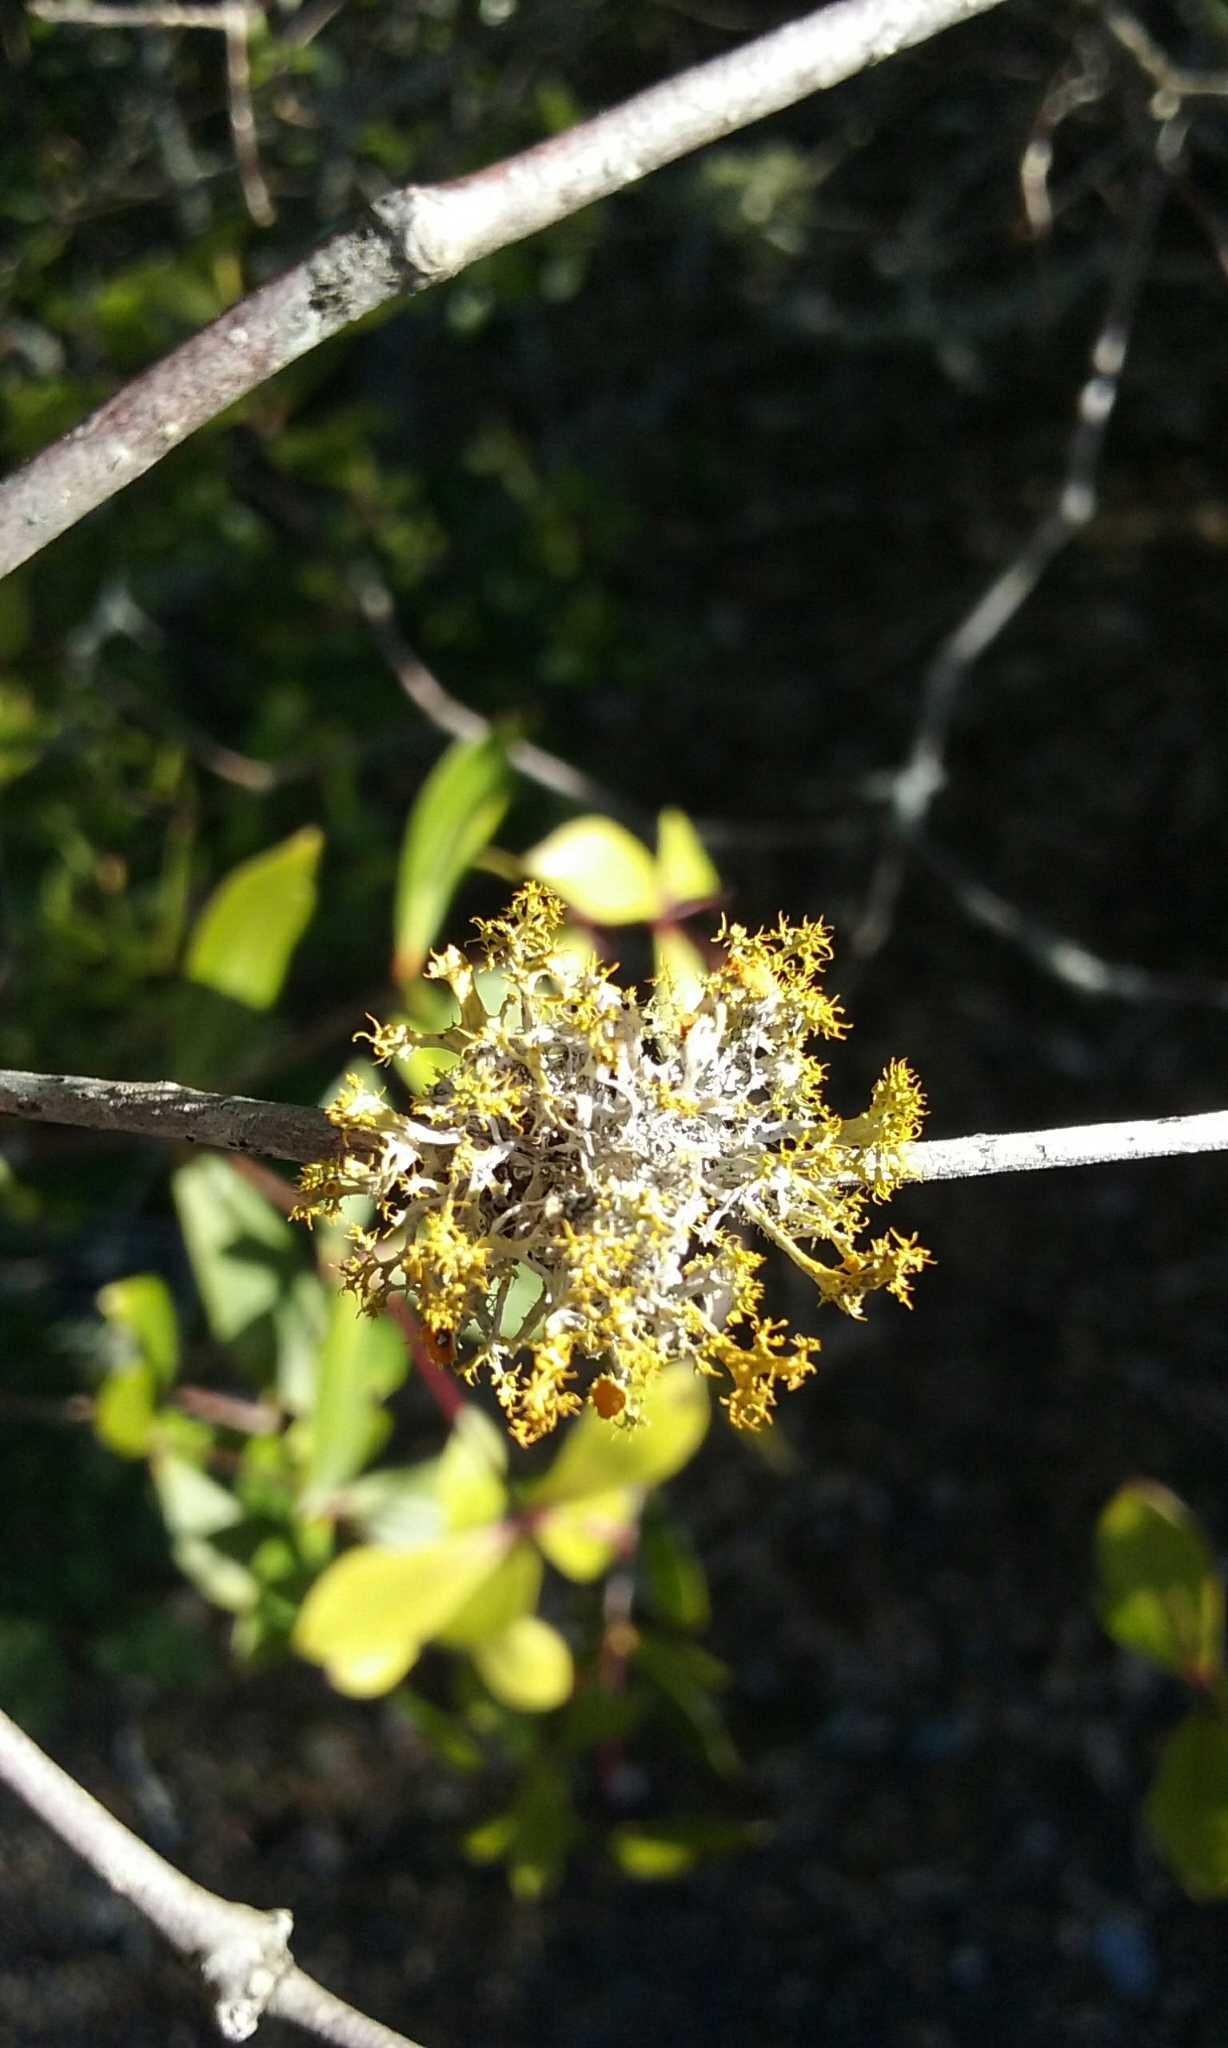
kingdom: Fungi
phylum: Ascomycota
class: Lecanoromycetes
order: Teloschistales
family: Teloschistaceae
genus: Niorma
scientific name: Niorma chrysophthalma
